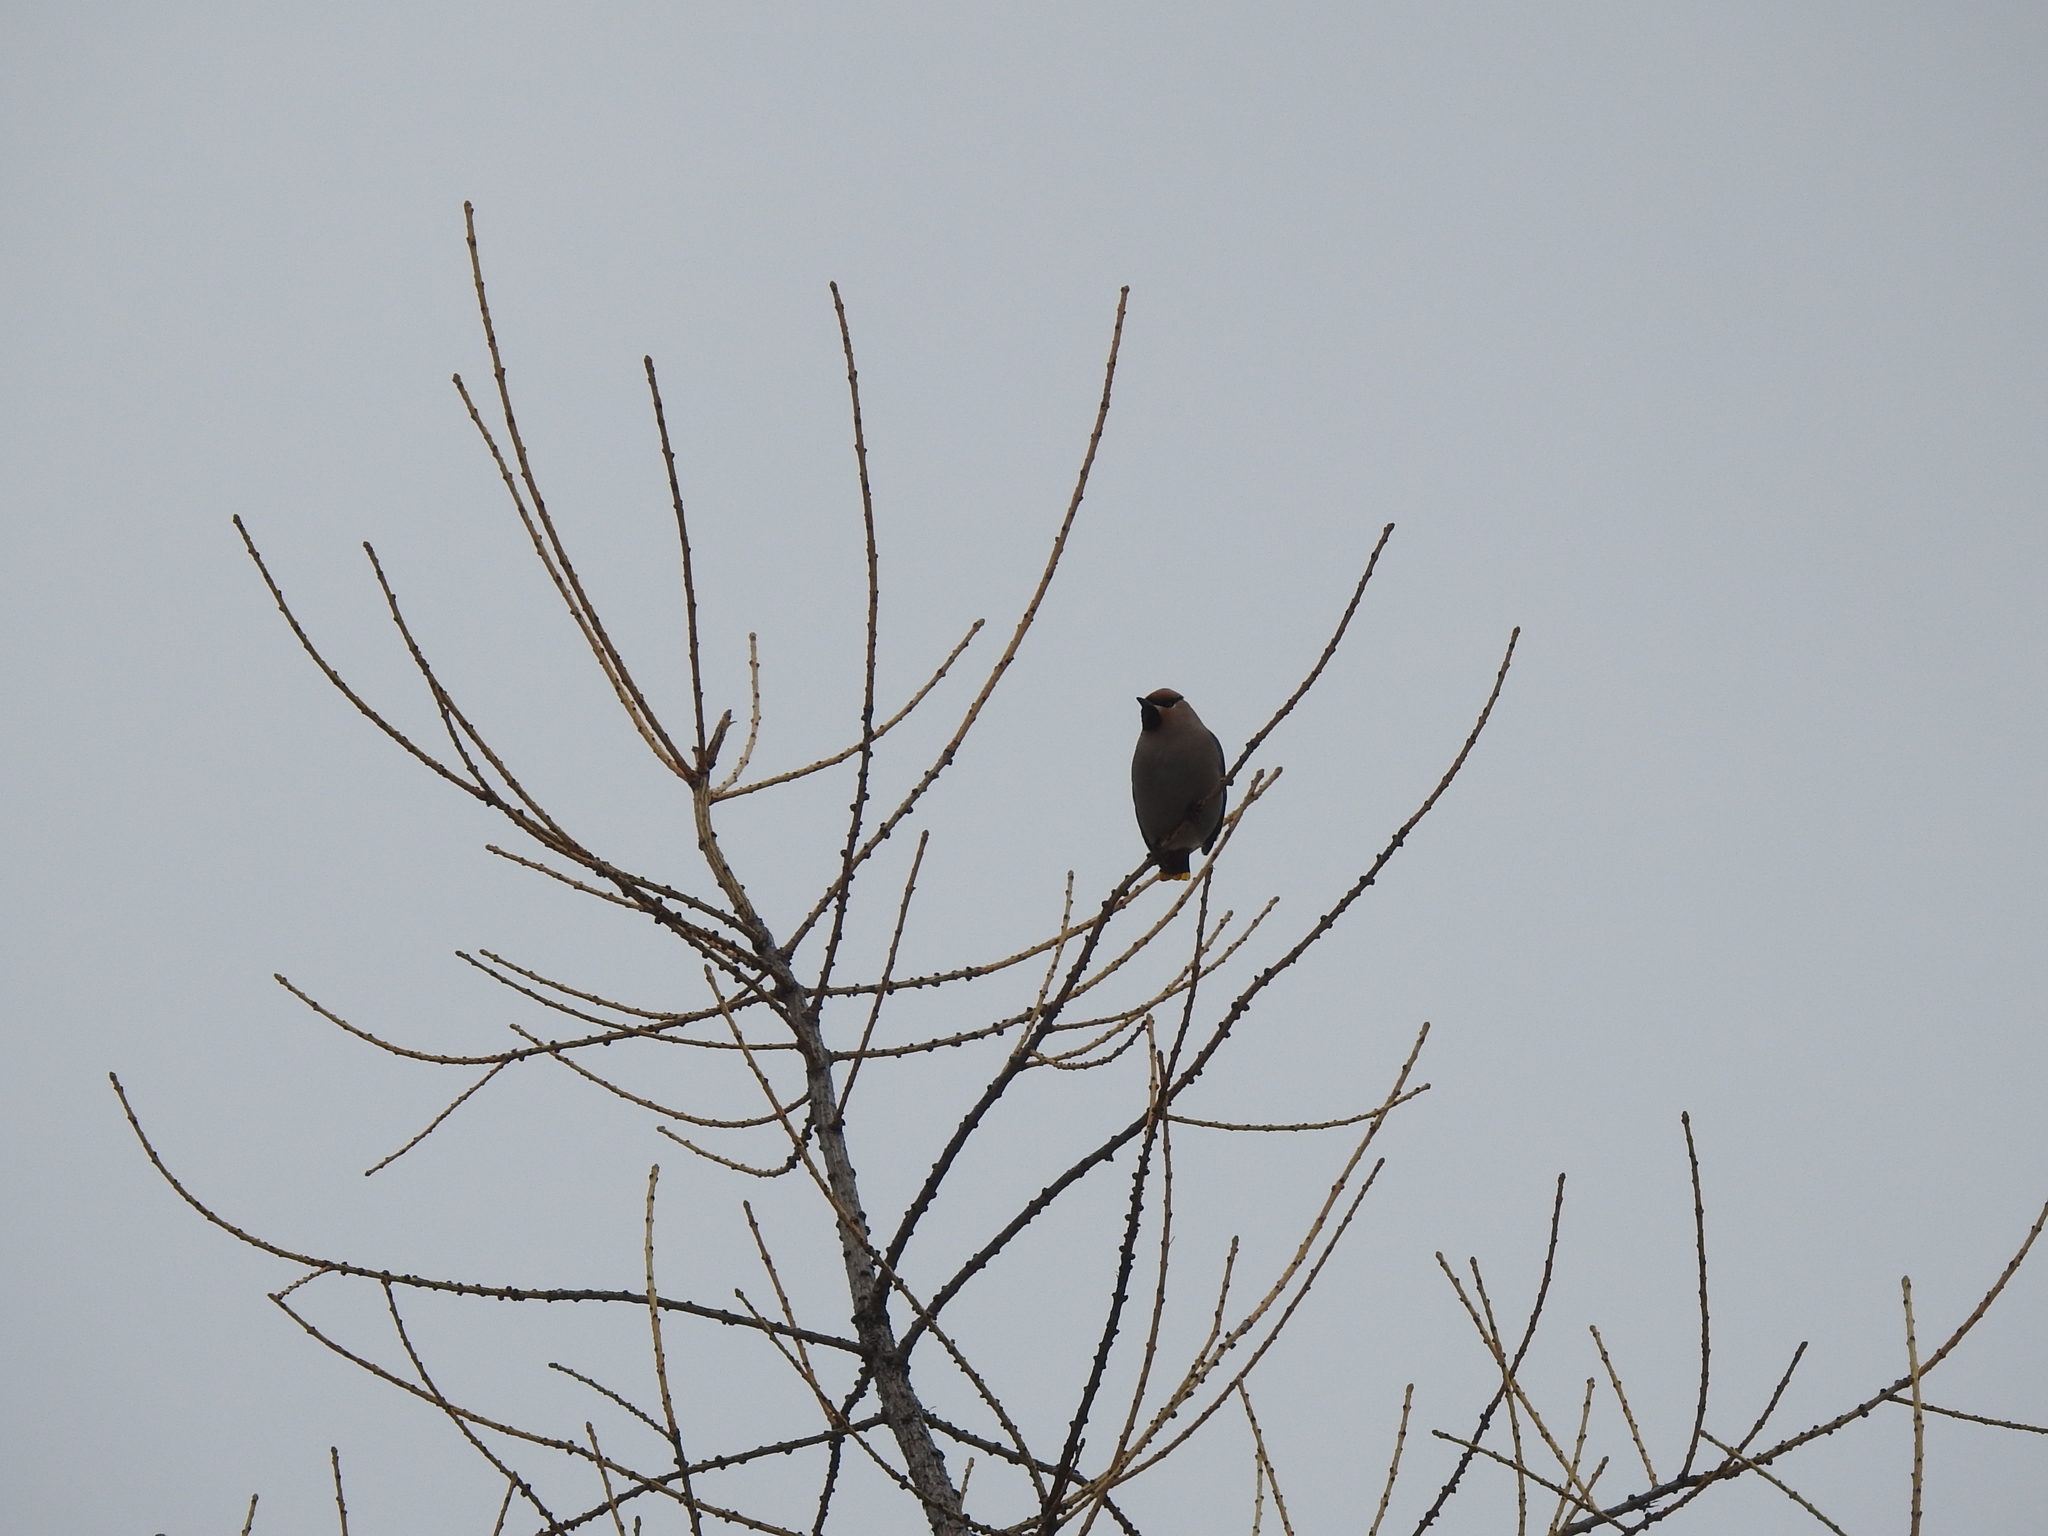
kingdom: Animalia
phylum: Chordata
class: Aves
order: Passeriformes
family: Bombycillidae
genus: Bombycilla
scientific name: Bombycilla garrulus
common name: Bohemian waxwing
